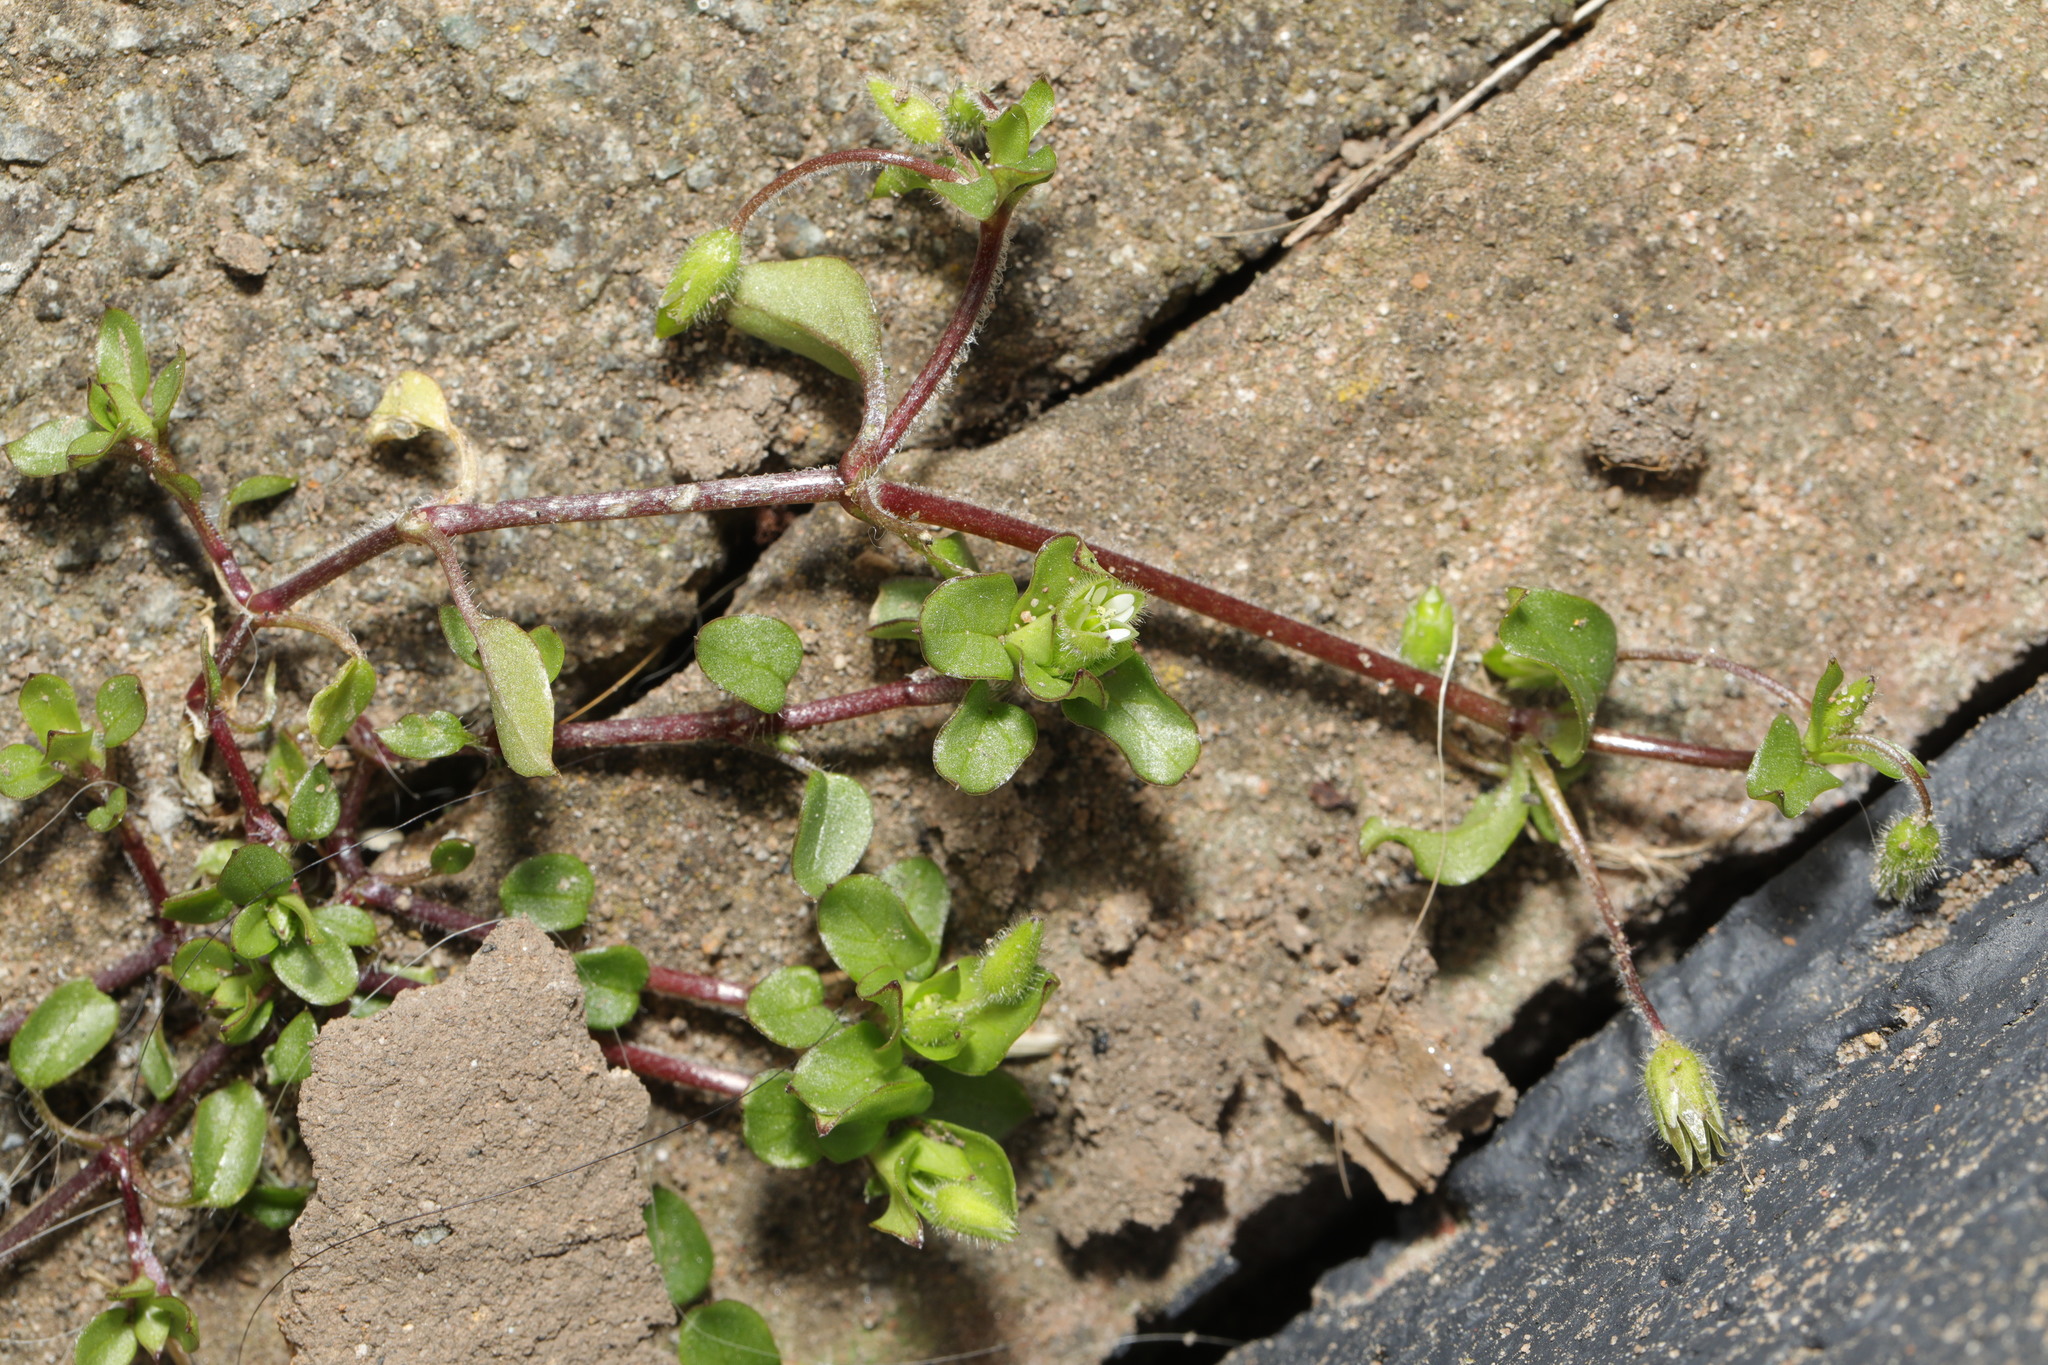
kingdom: Plantae
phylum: Tracheophyta
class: Magnoliopsida
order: Caryophyllales
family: Caryophyllaceae
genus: Stellaria
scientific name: Stellaria media
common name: Common chickweed
